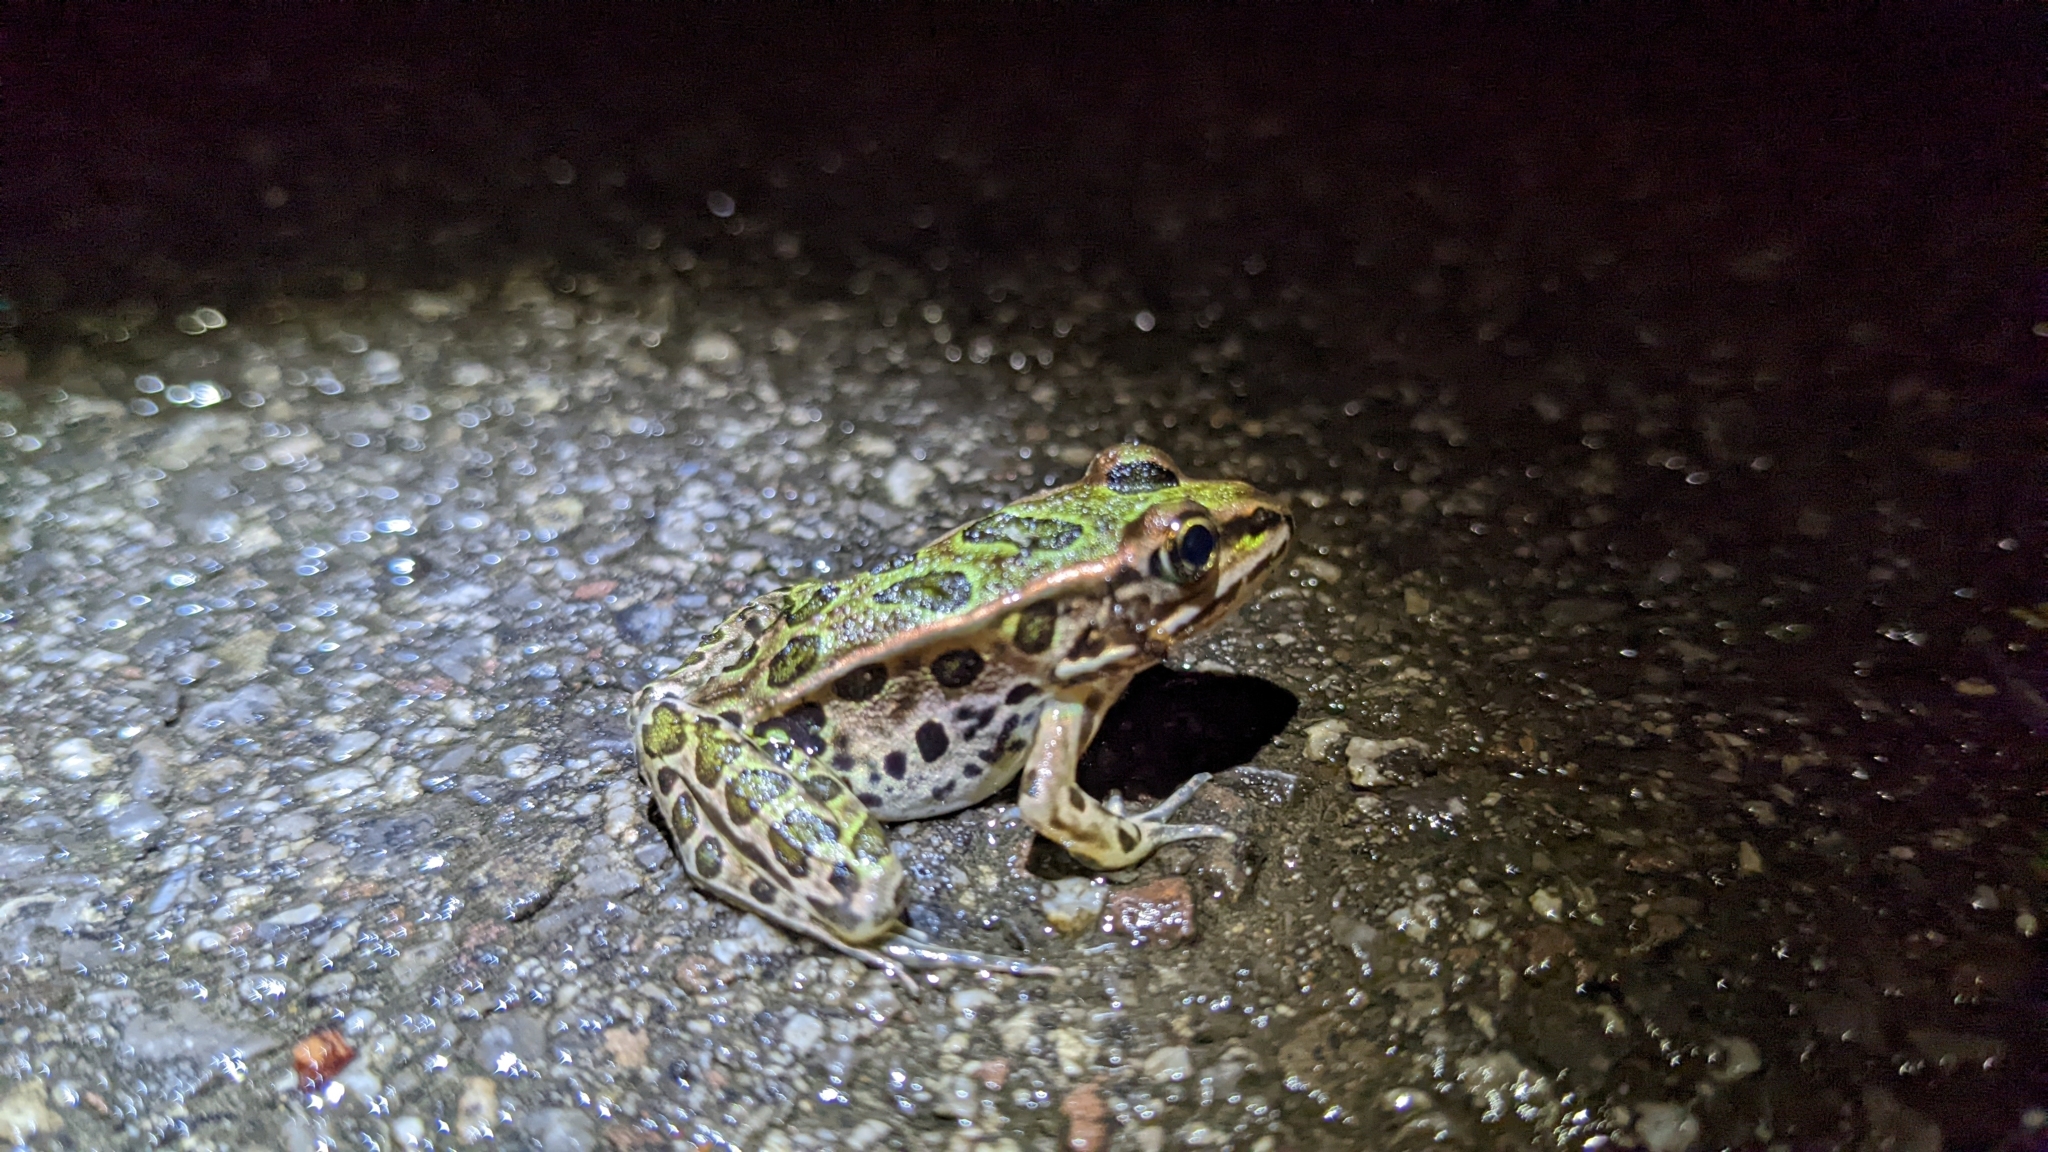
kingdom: Animalia
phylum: Chordata
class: Amphibia
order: Anura
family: Ranidae
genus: Lithobates
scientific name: Lithobates pipiens
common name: Northern leopard frog
